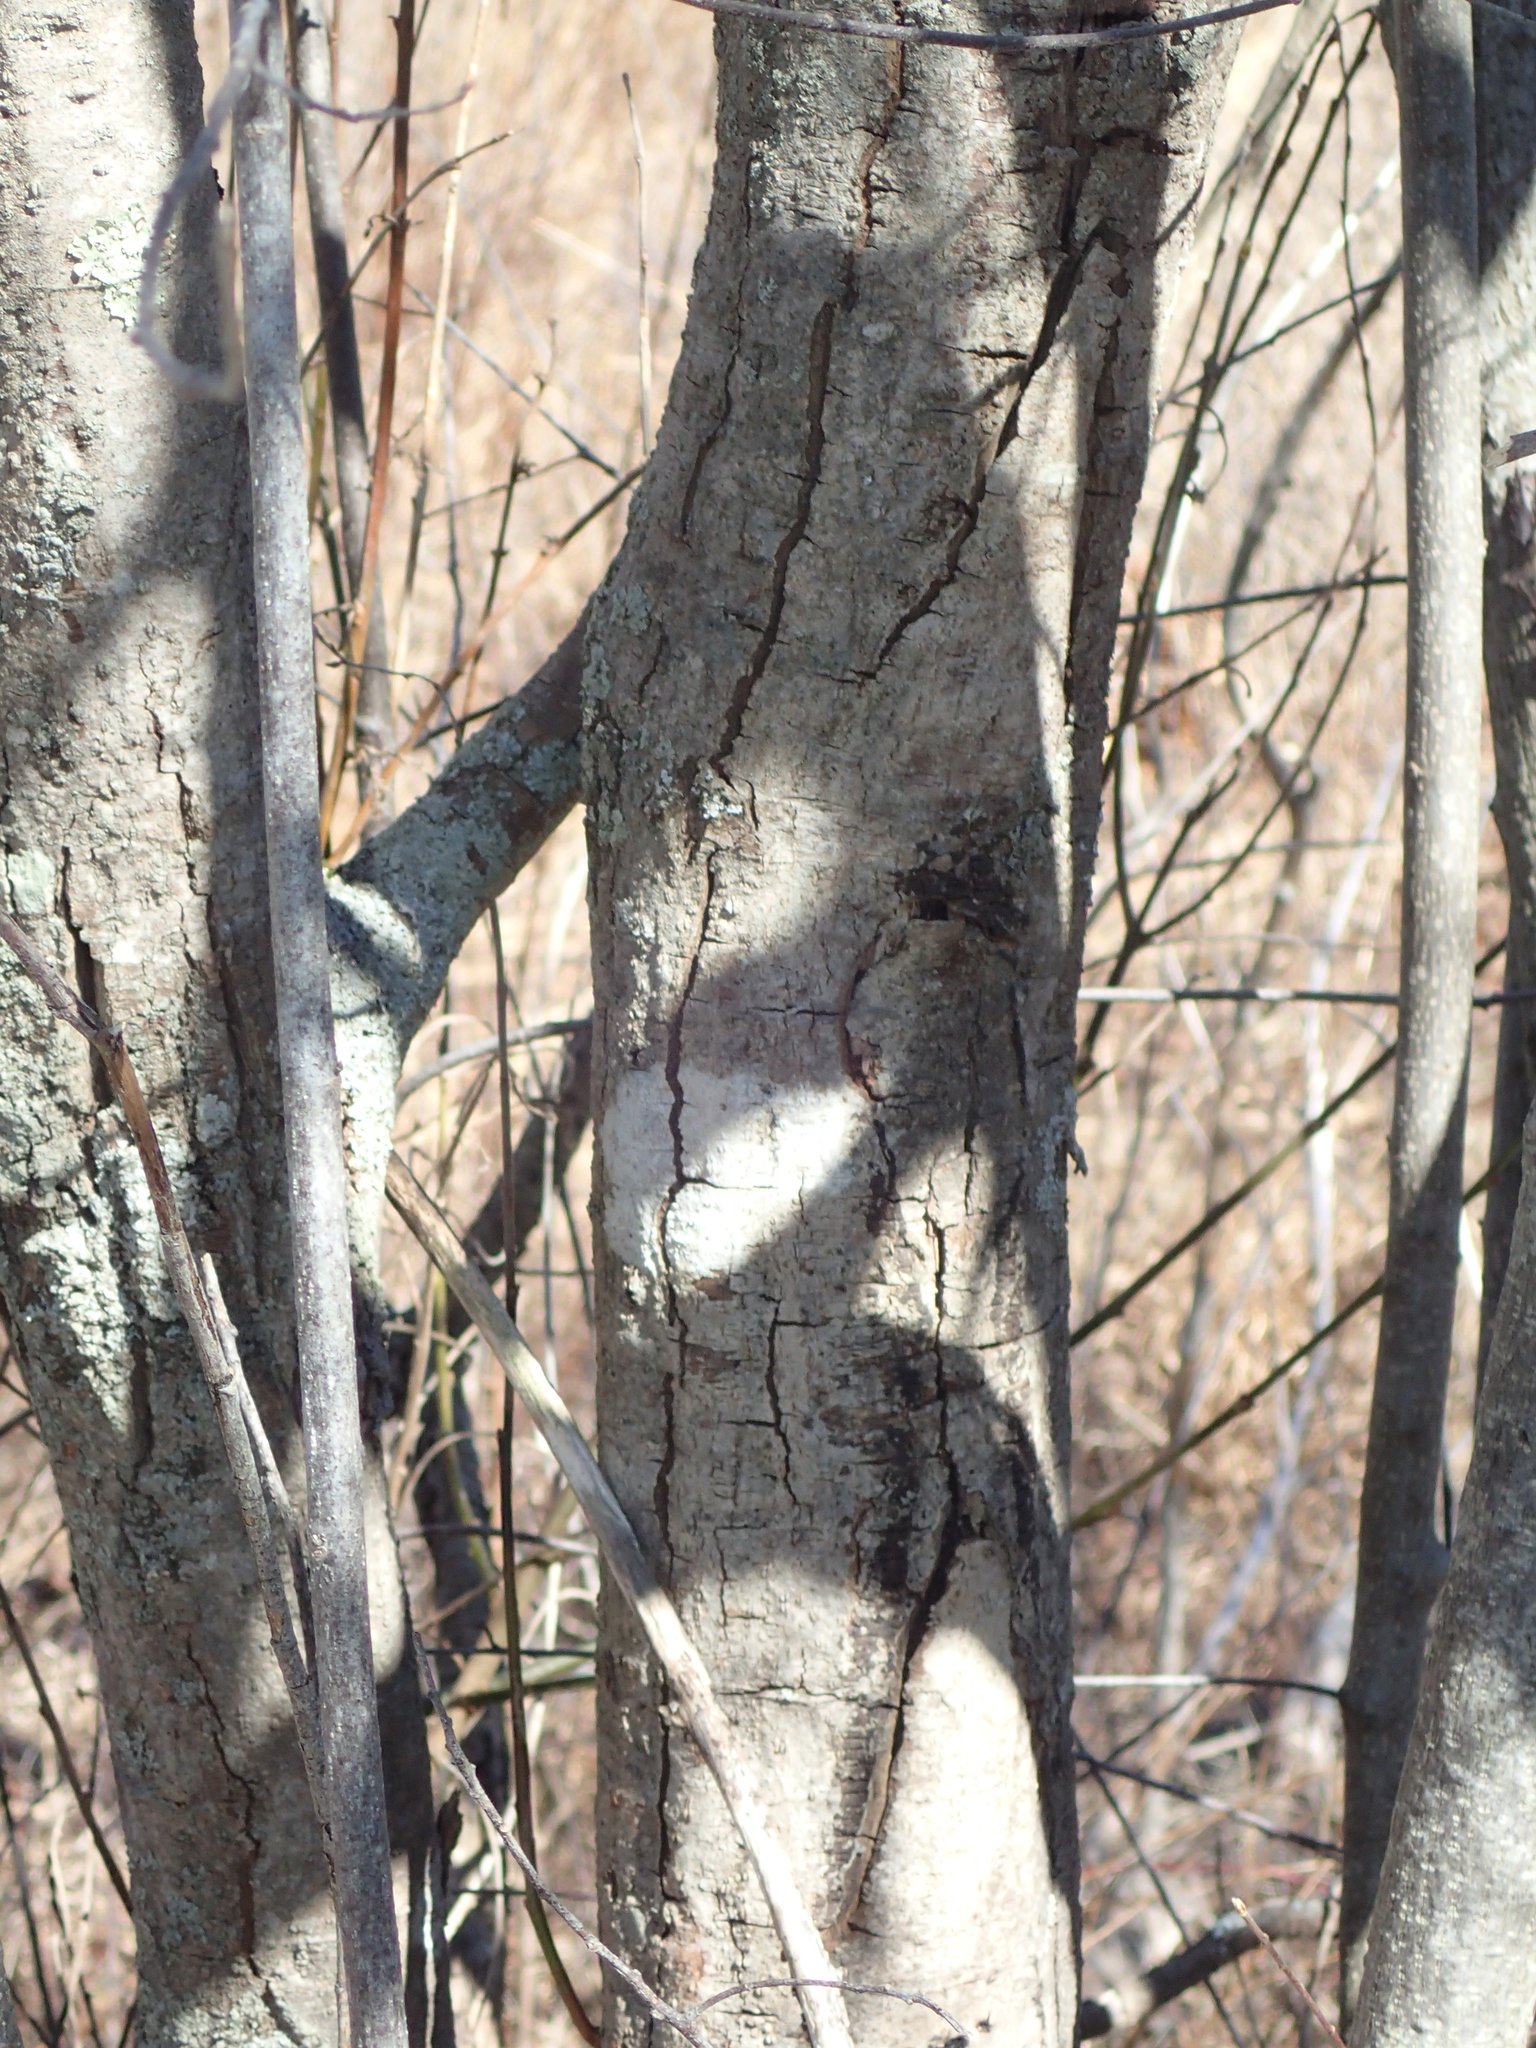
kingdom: Plantae
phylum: Tracheophyta
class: Magnoliopsida
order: Malpighiales
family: Salicaceae
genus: Salix
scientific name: Salix atrocinerea
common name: Rusty willow
